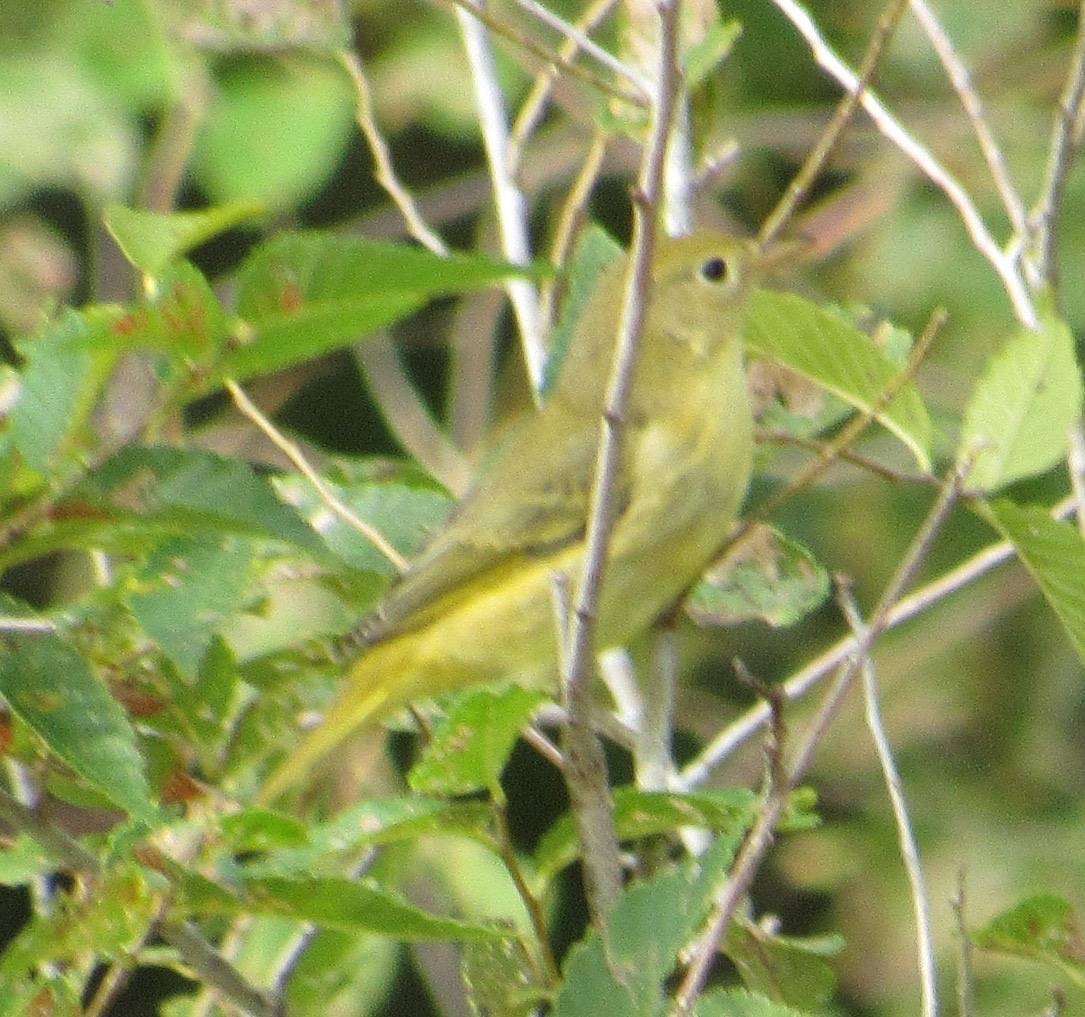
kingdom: Animalia
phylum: Chordata
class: Aves
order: Passeriformes
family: Parulidae
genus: Setophaga
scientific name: Setophaga petechia
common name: Yellow warbler
